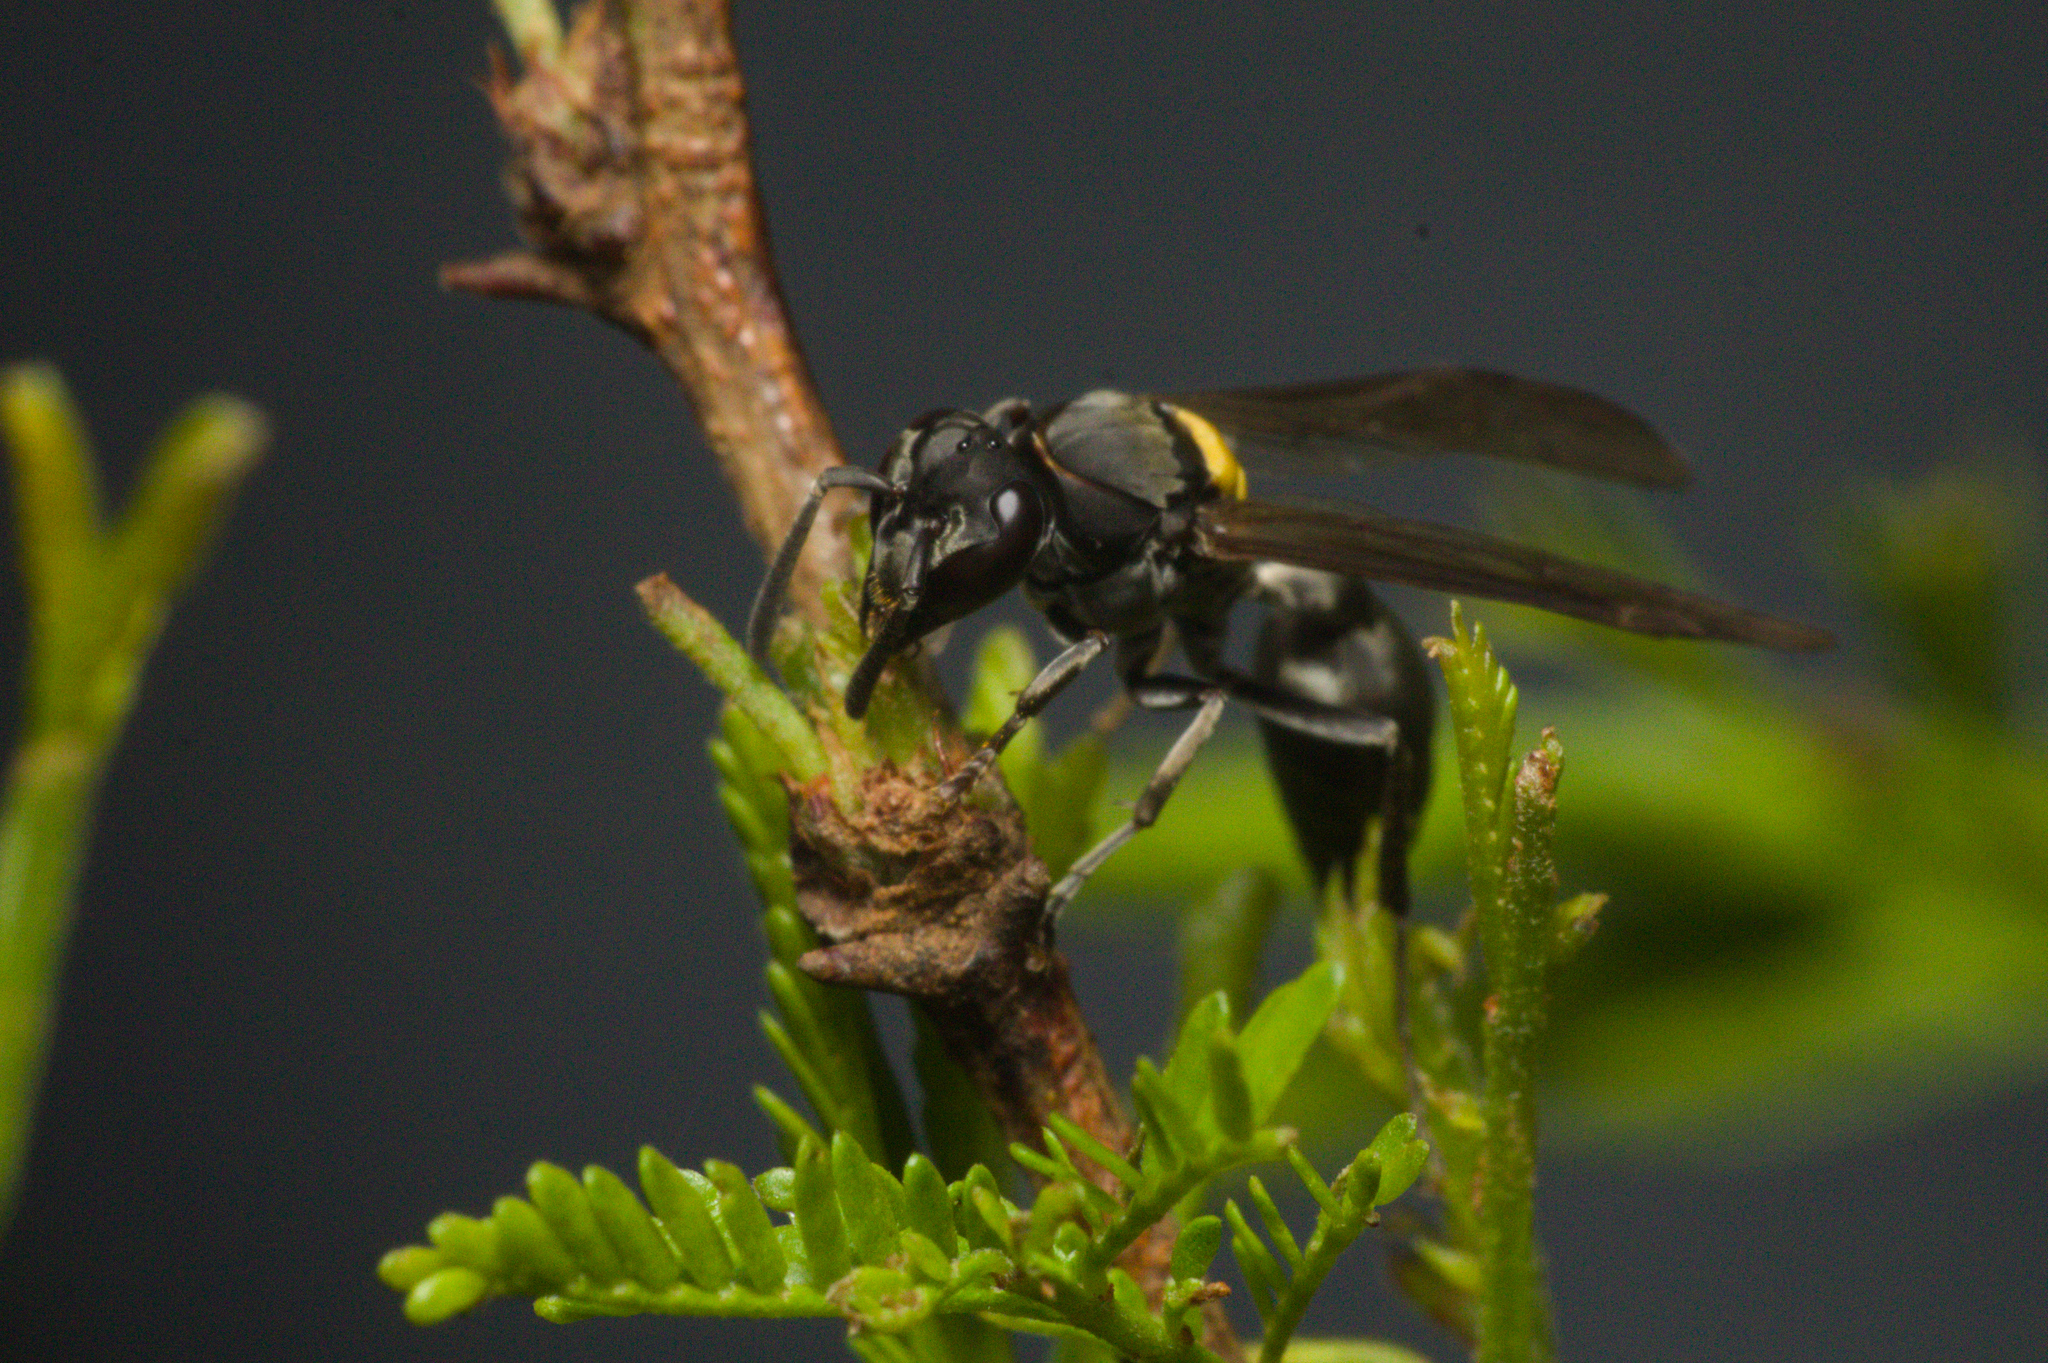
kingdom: Animalia
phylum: Arthropoda
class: Insecta
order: Hymenoptera
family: Eumenidae
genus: Polybia
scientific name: Polybia scutellaris
